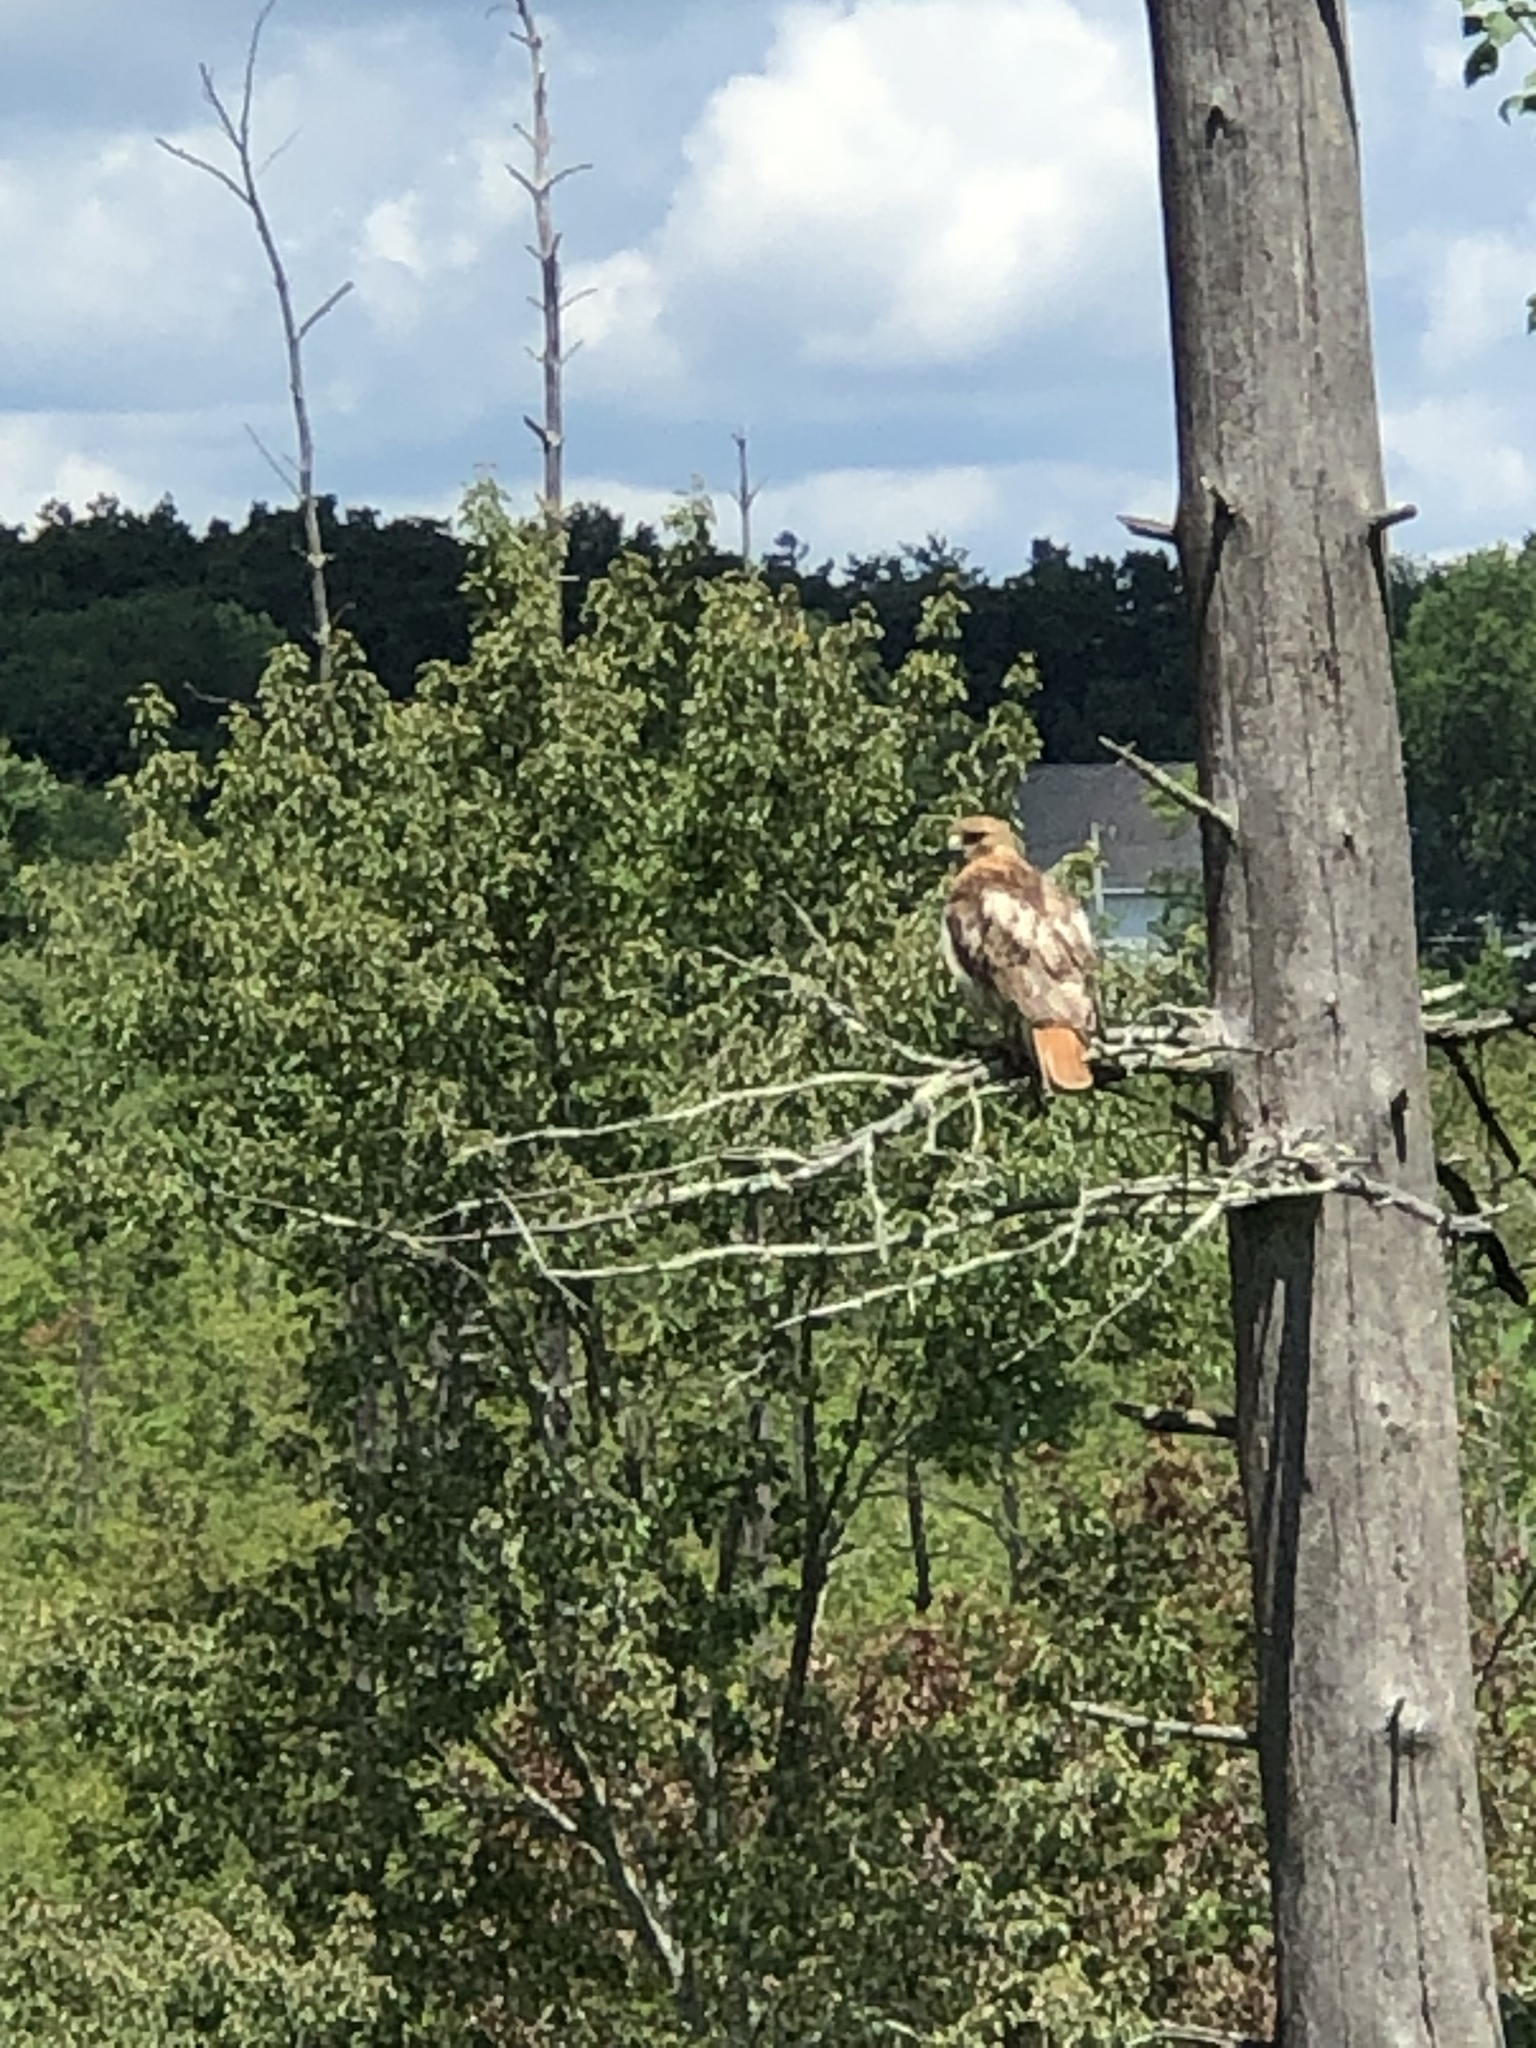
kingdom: Animalia
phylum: Chordata
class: Aves
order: Accipitriformes
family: Accipitridae
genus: Buteo
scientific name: Buteo jamaicensis
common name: Red-tailed hawk
